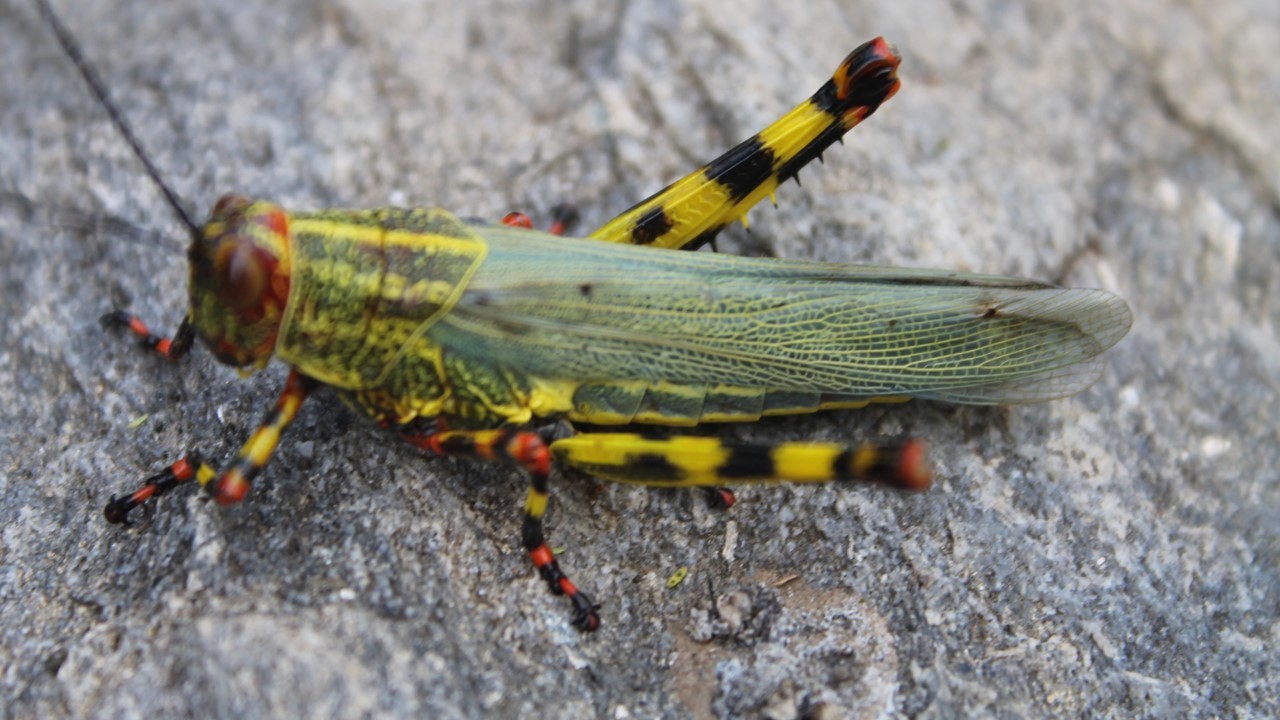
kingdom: Animalia
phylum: Arthropoda
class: Insecta
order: Orthoptera
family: Romaleidae
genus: Zoniopoda
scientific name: Zoniopoda tarsata
